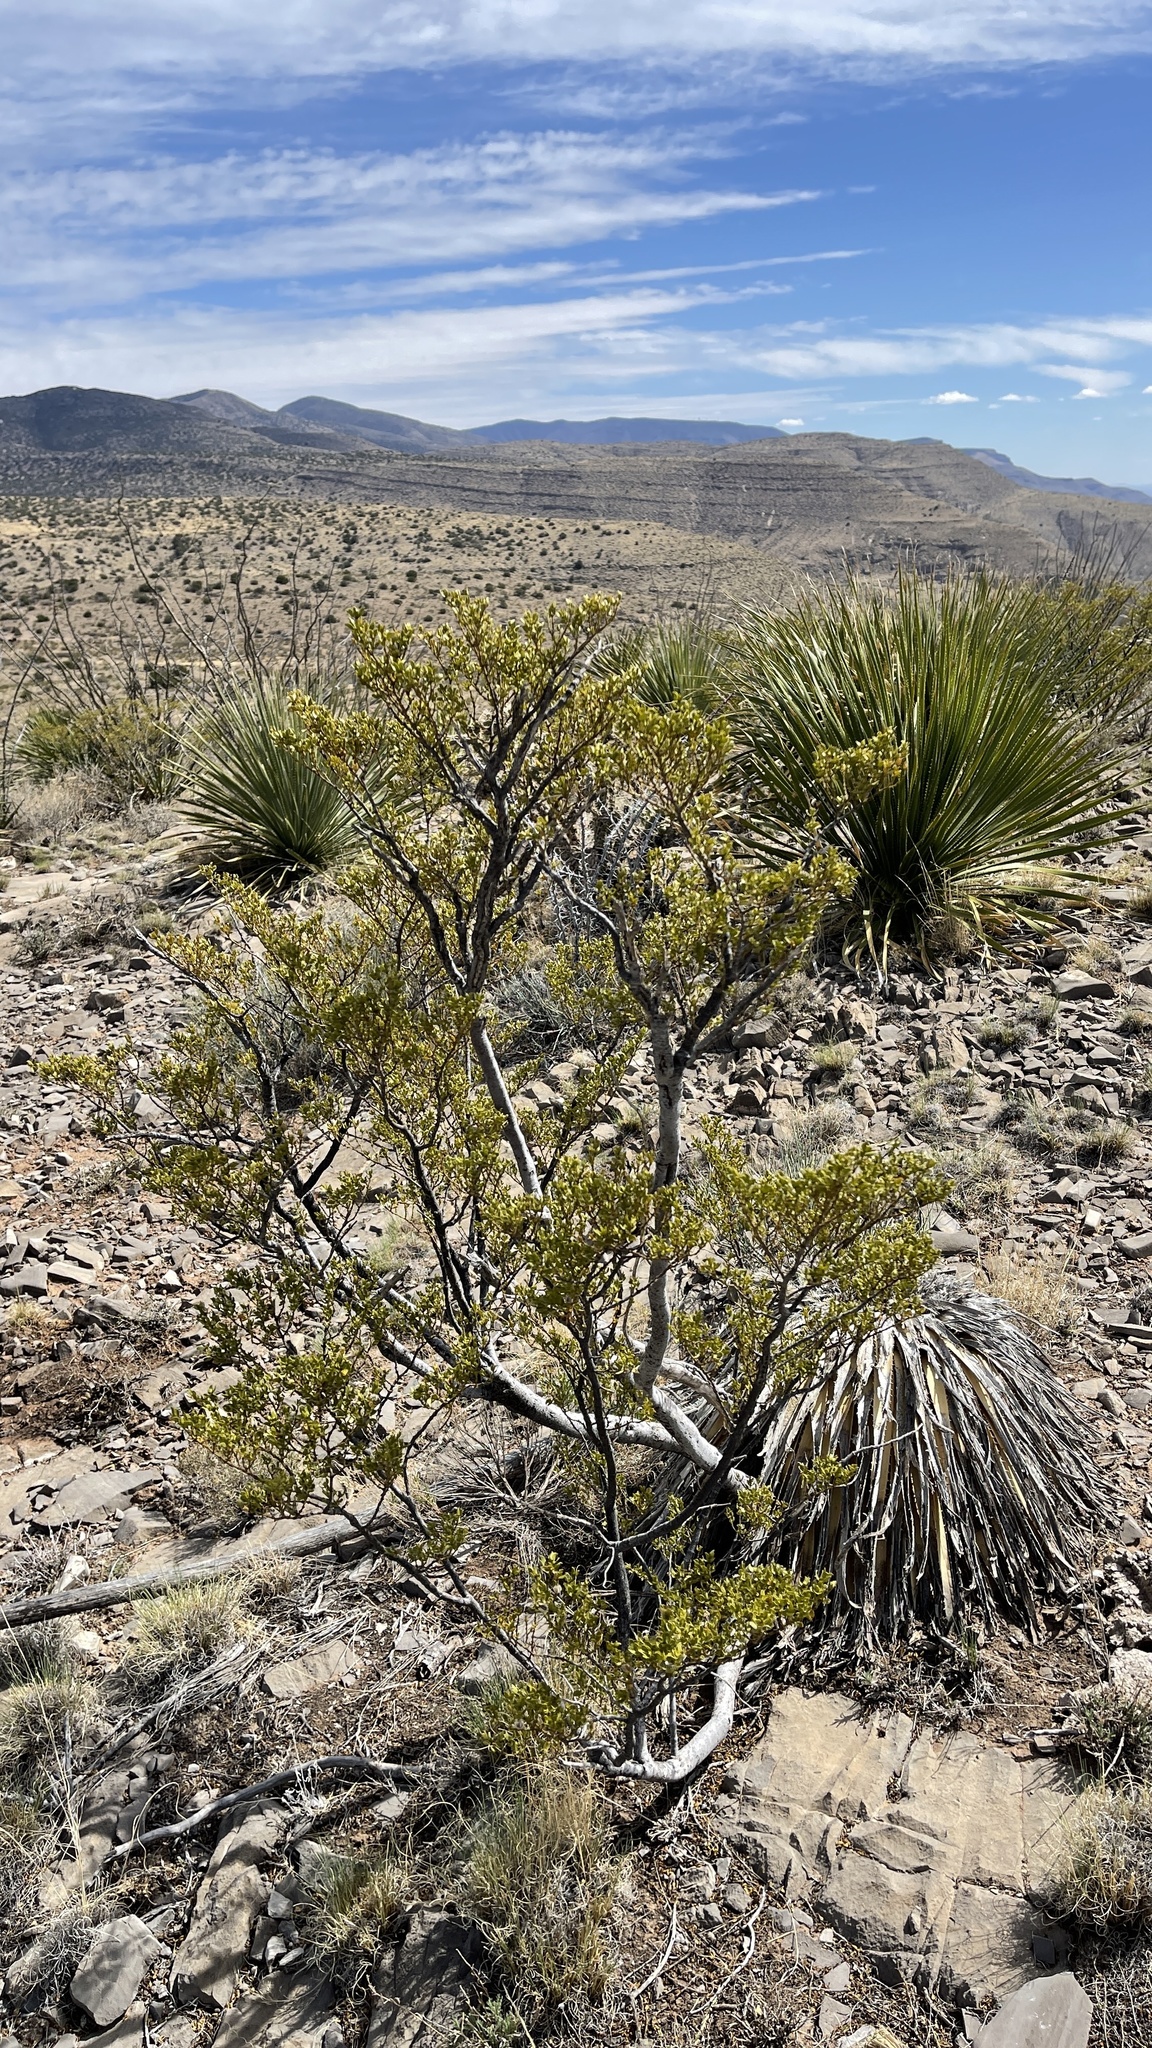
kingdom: Plantae
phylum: Tracheophyta
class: Magnoliopsida
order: Zygophyllales
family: Zygophyllaceae
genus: Larrea
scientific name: Larrea tridentata
